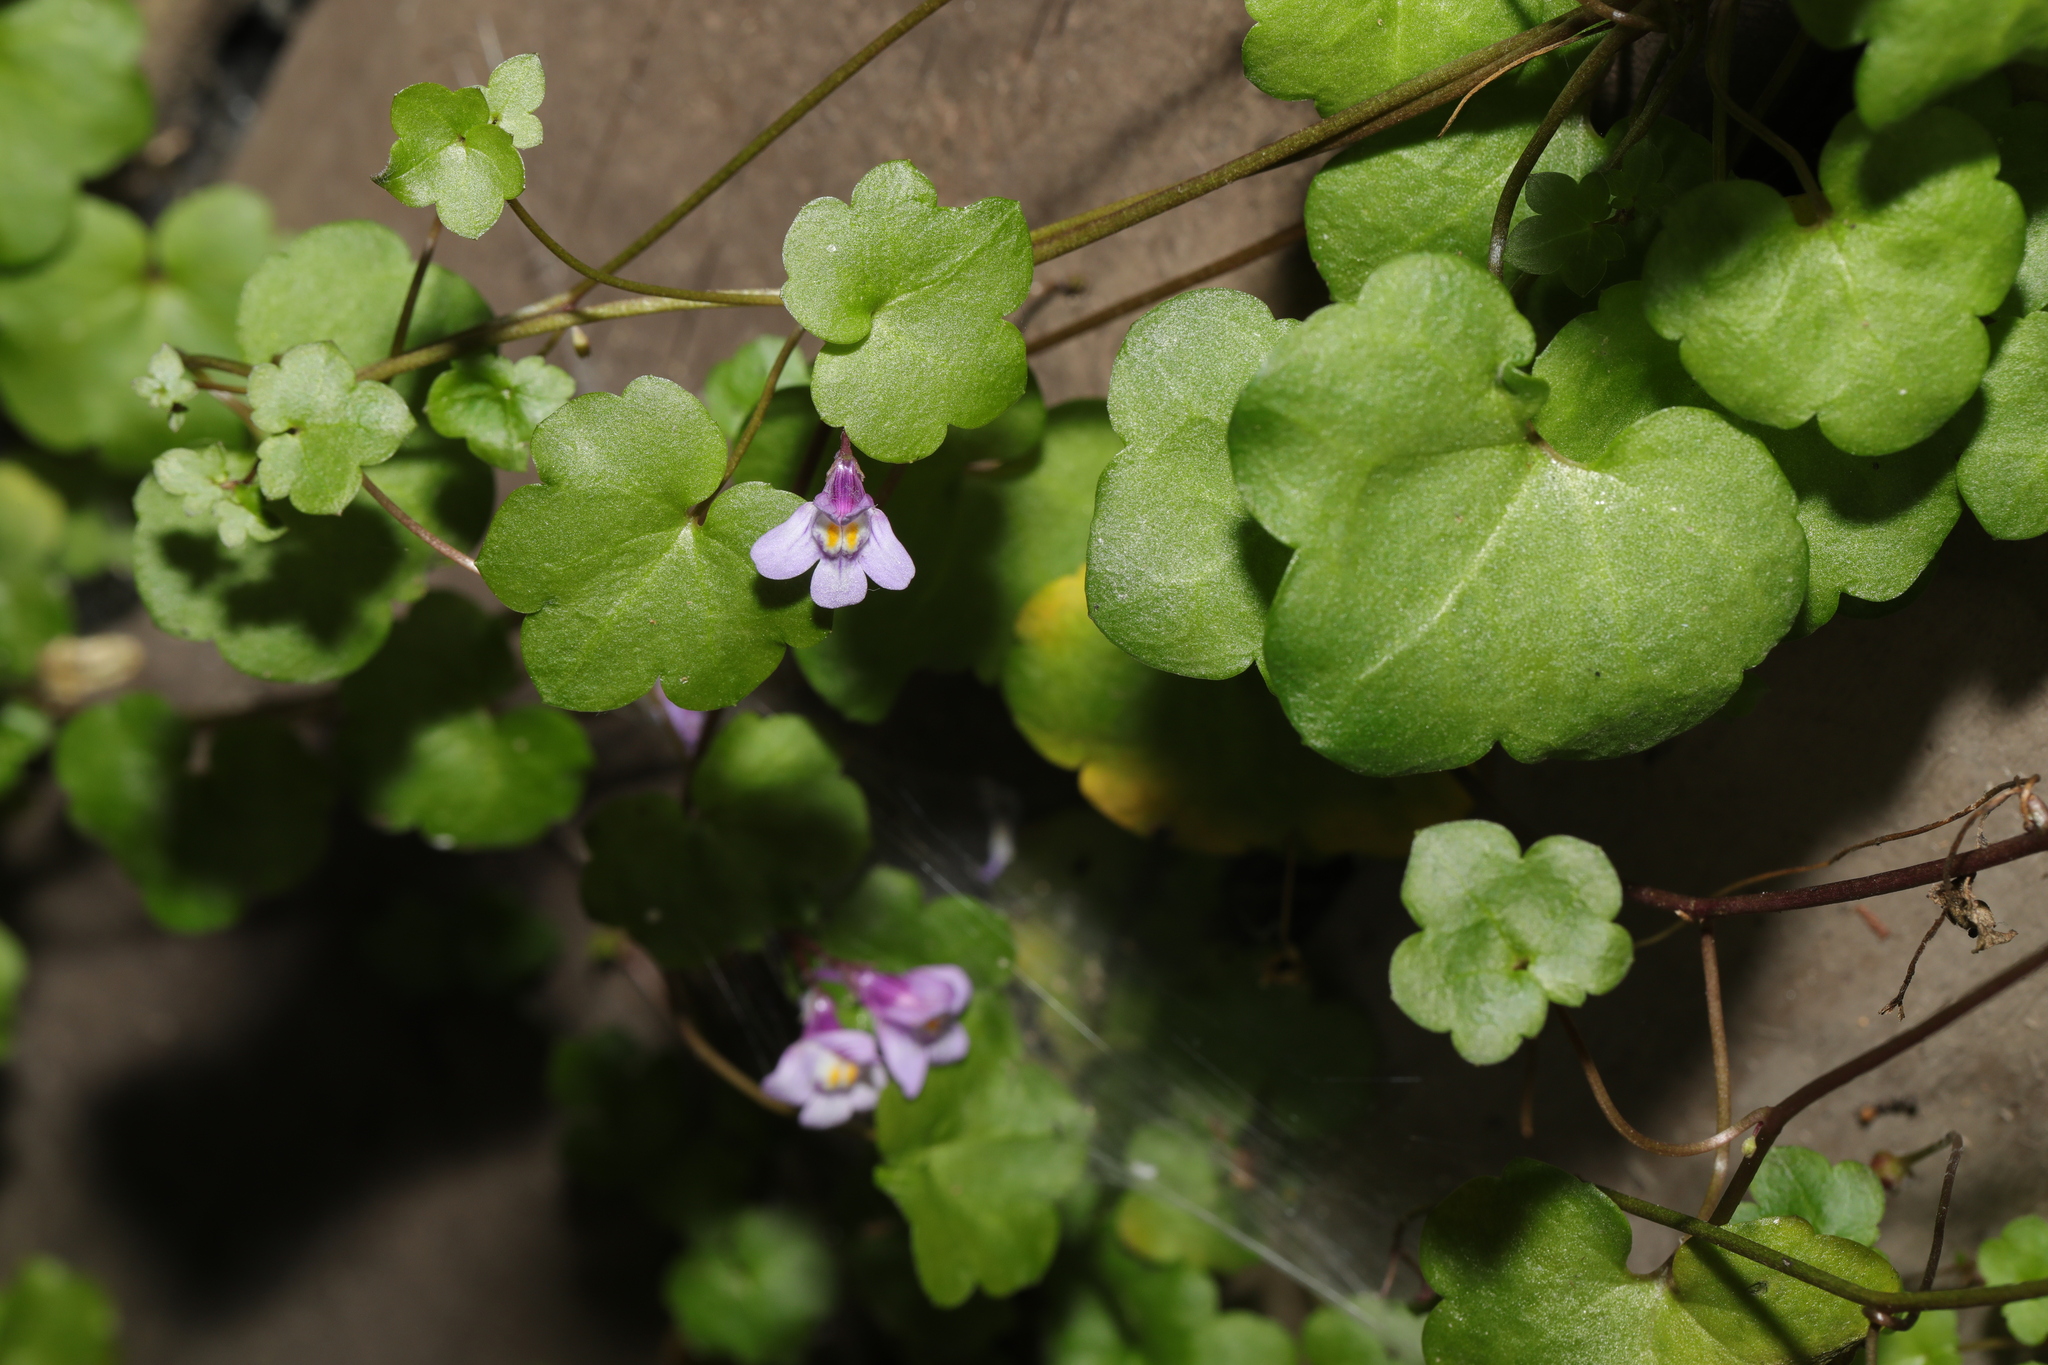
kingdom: Plantae
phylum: Tracheophyta
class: Magnoliopsida
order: Lamiales
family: Plantaginaceae
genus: Cymbalaria
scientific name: Cymbalaria muralis
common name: Ivy-leaved toadflax
